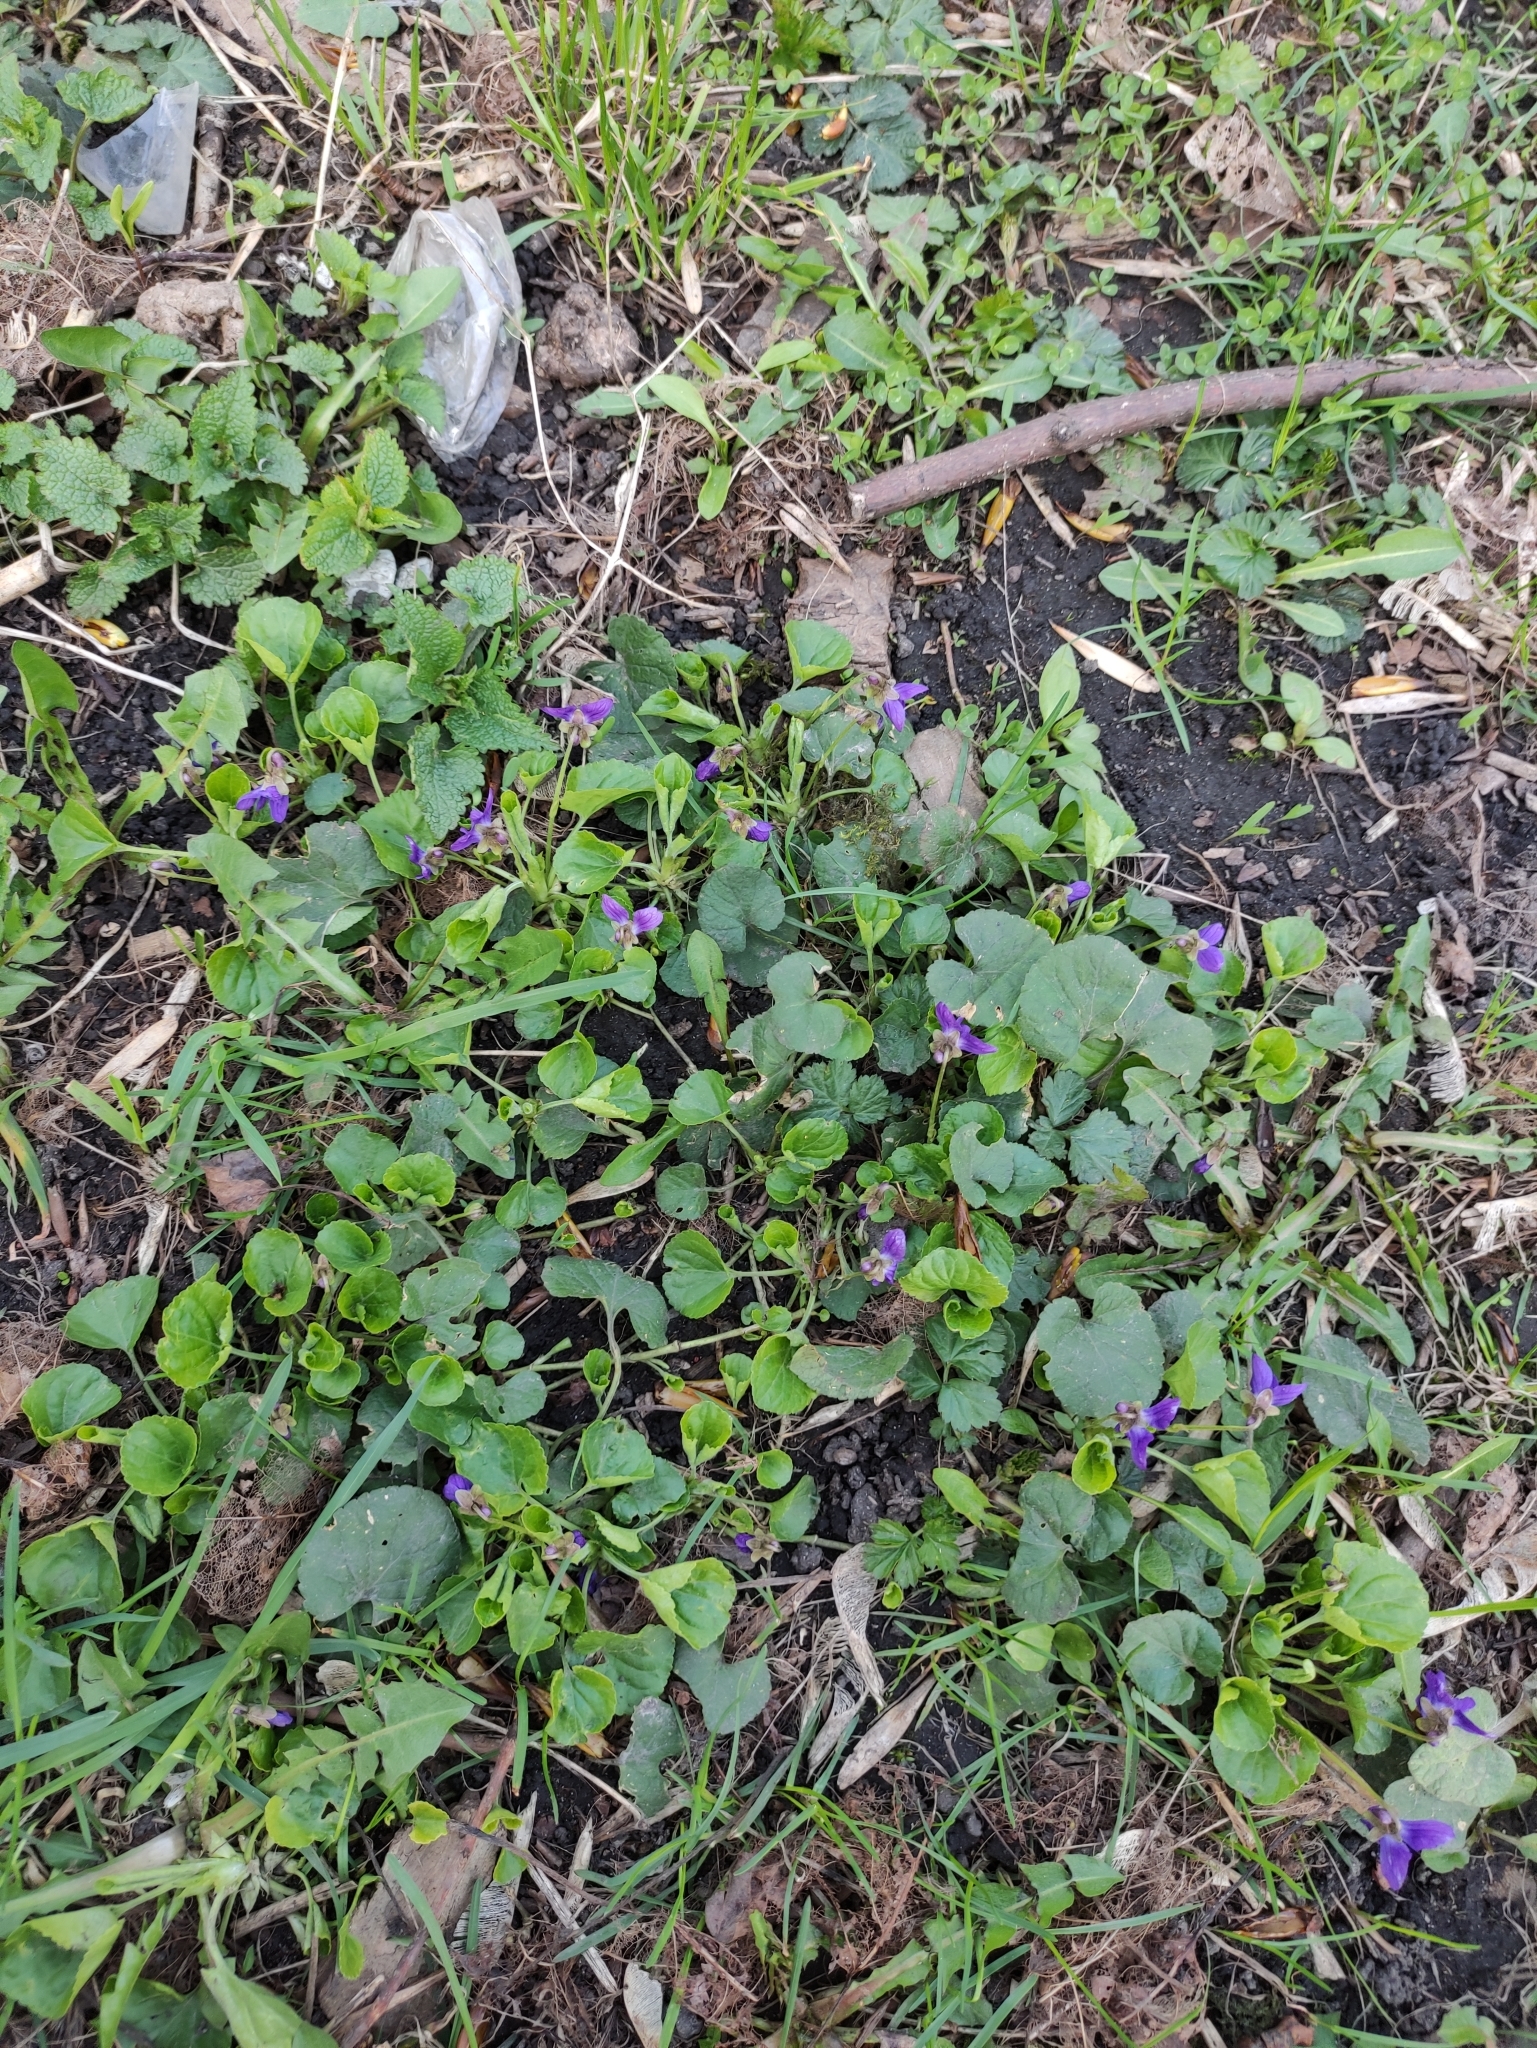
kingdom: Plantae
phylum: Tracheophyta
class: Magnoliopsida
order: Malpighiales
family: Violaceae
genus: Viola
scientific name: Viola odorata
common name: Sweet violet
